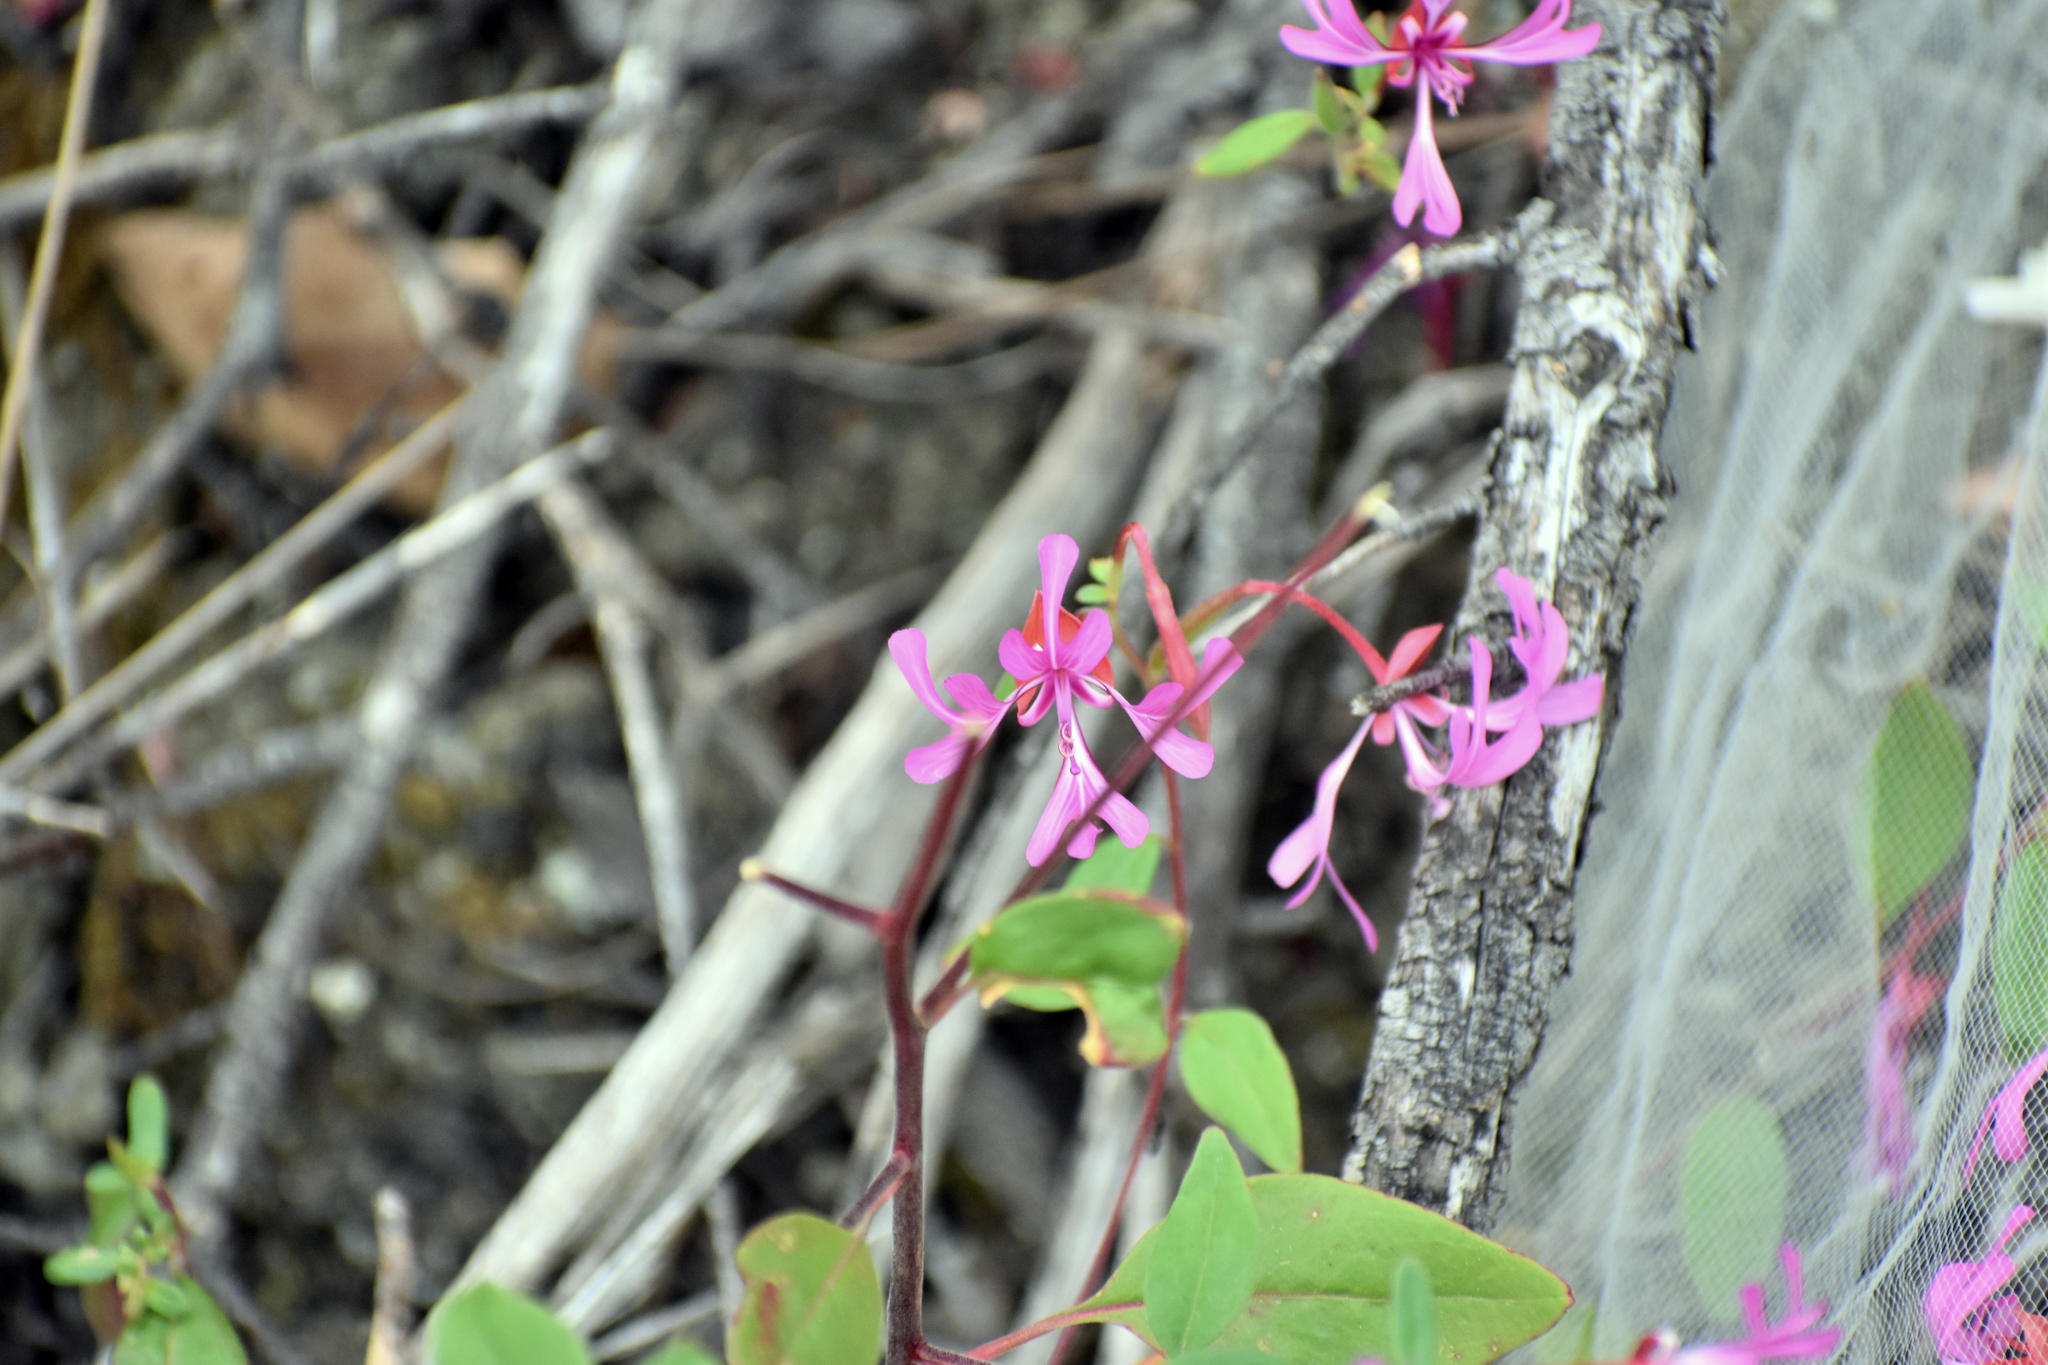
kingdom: Plantae
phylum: Tracheophyta
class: Magnoliopsida
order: Myrtales
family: Onagraceae
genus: Clarkia
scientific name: Clarkia concinna
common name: Red-ribbons
